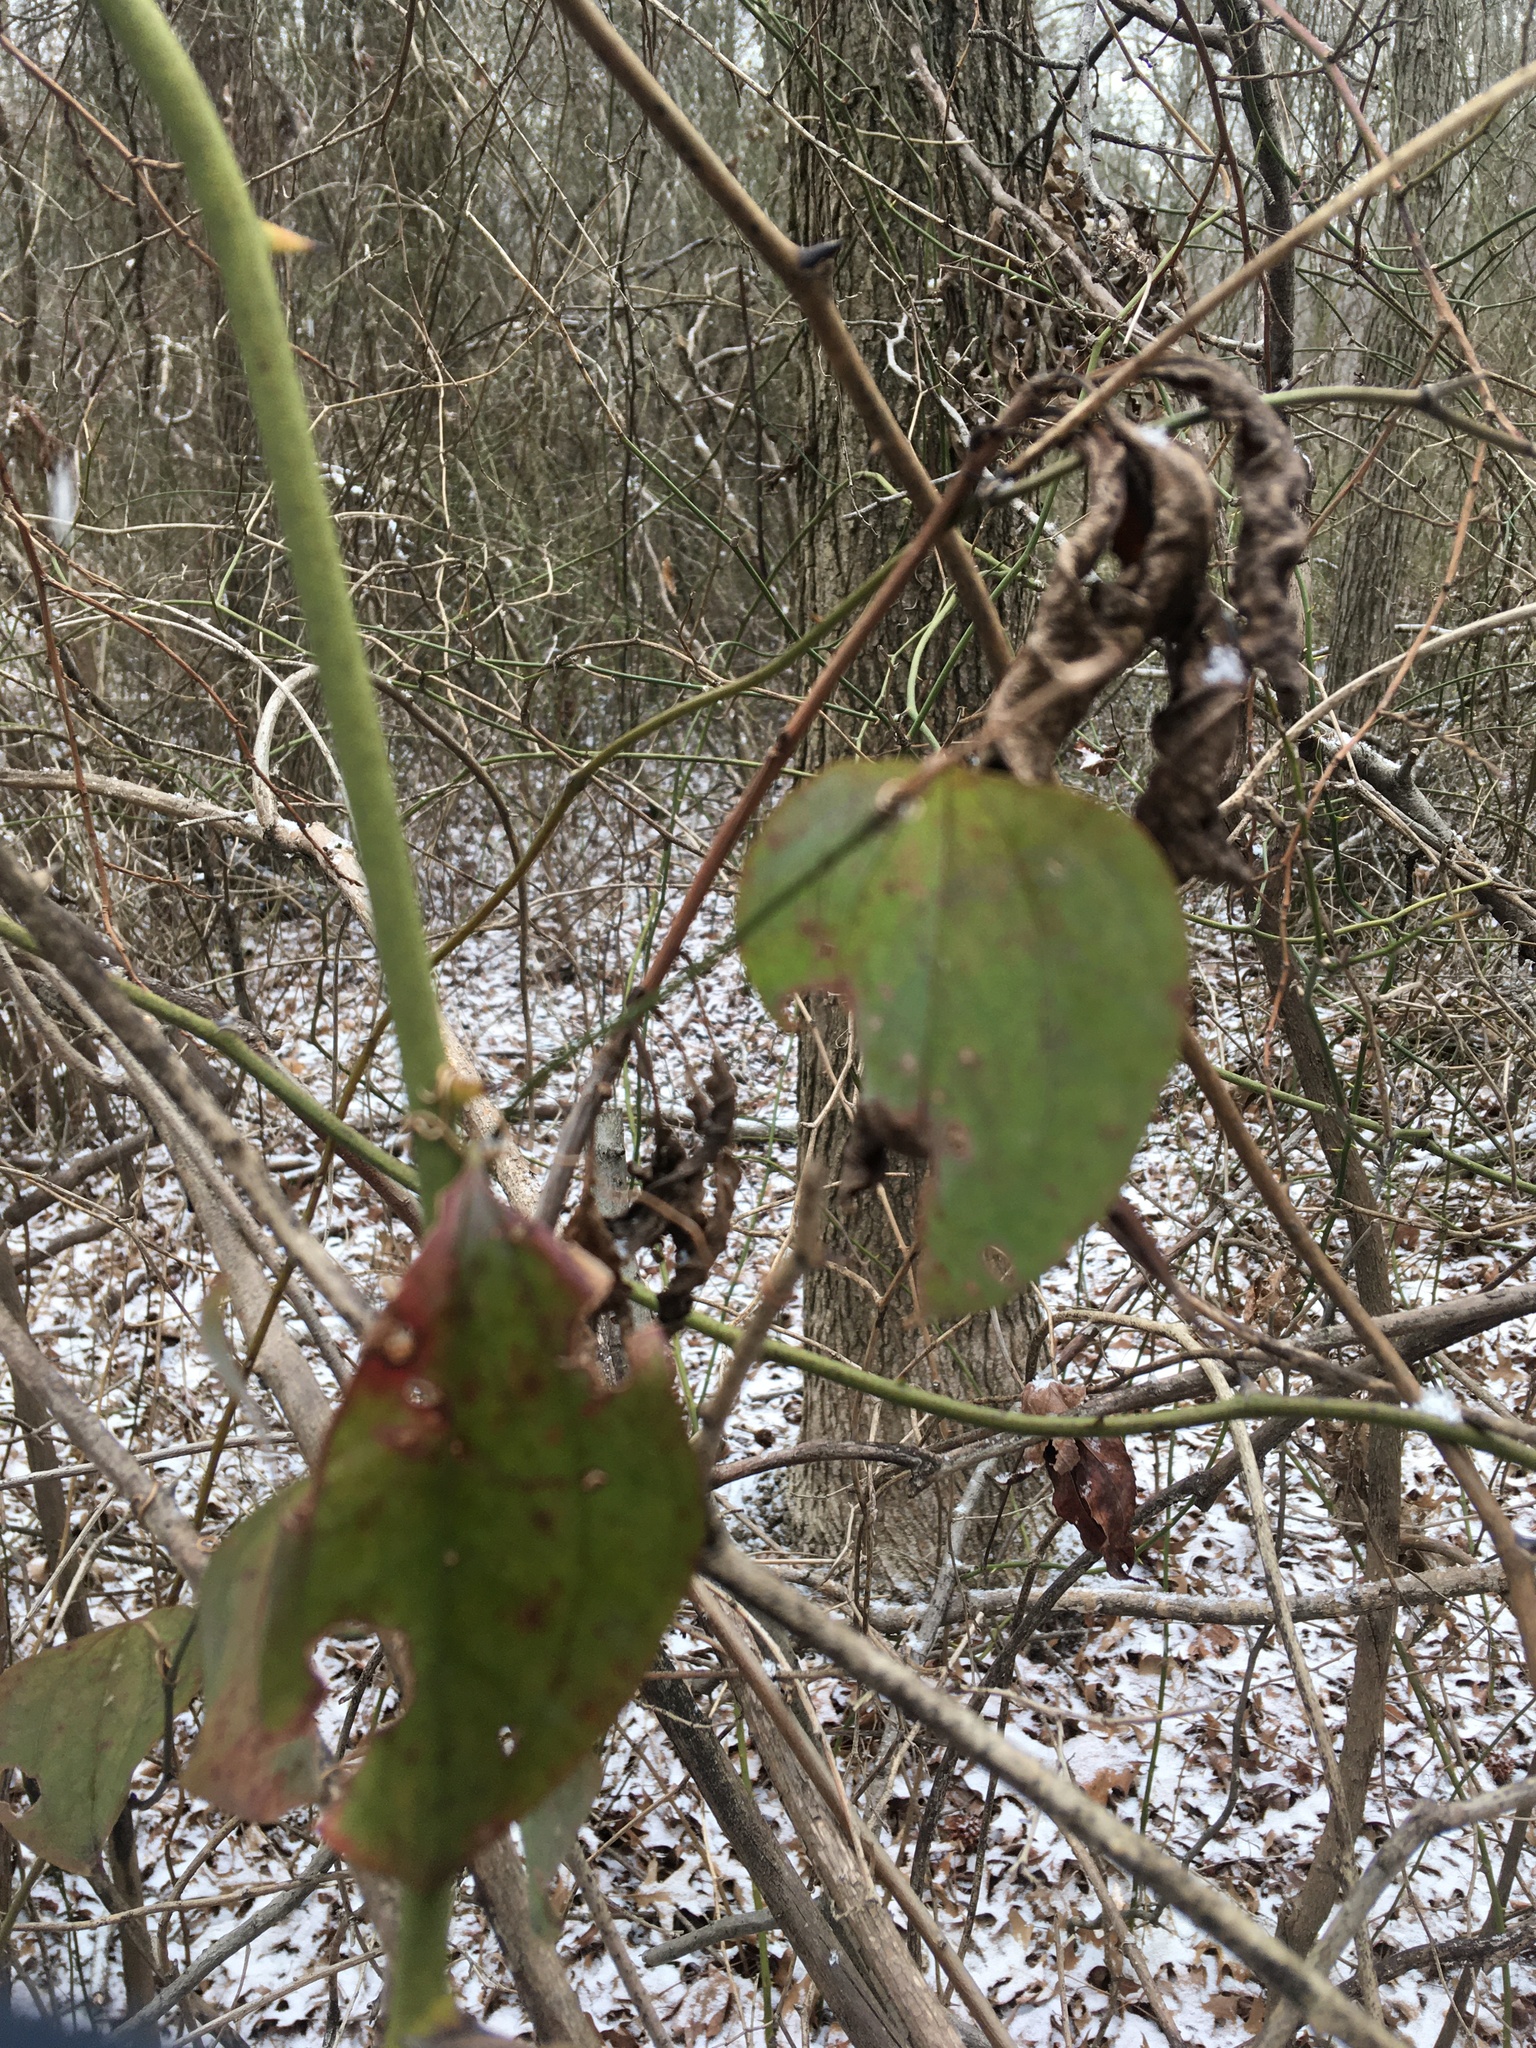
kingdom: Plantae
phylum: Tracheophyta
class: Liliopsida
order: Liliales
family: Smilacaceae
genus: Smilax
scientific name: Smilax glauca
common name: Cat greenbrier
